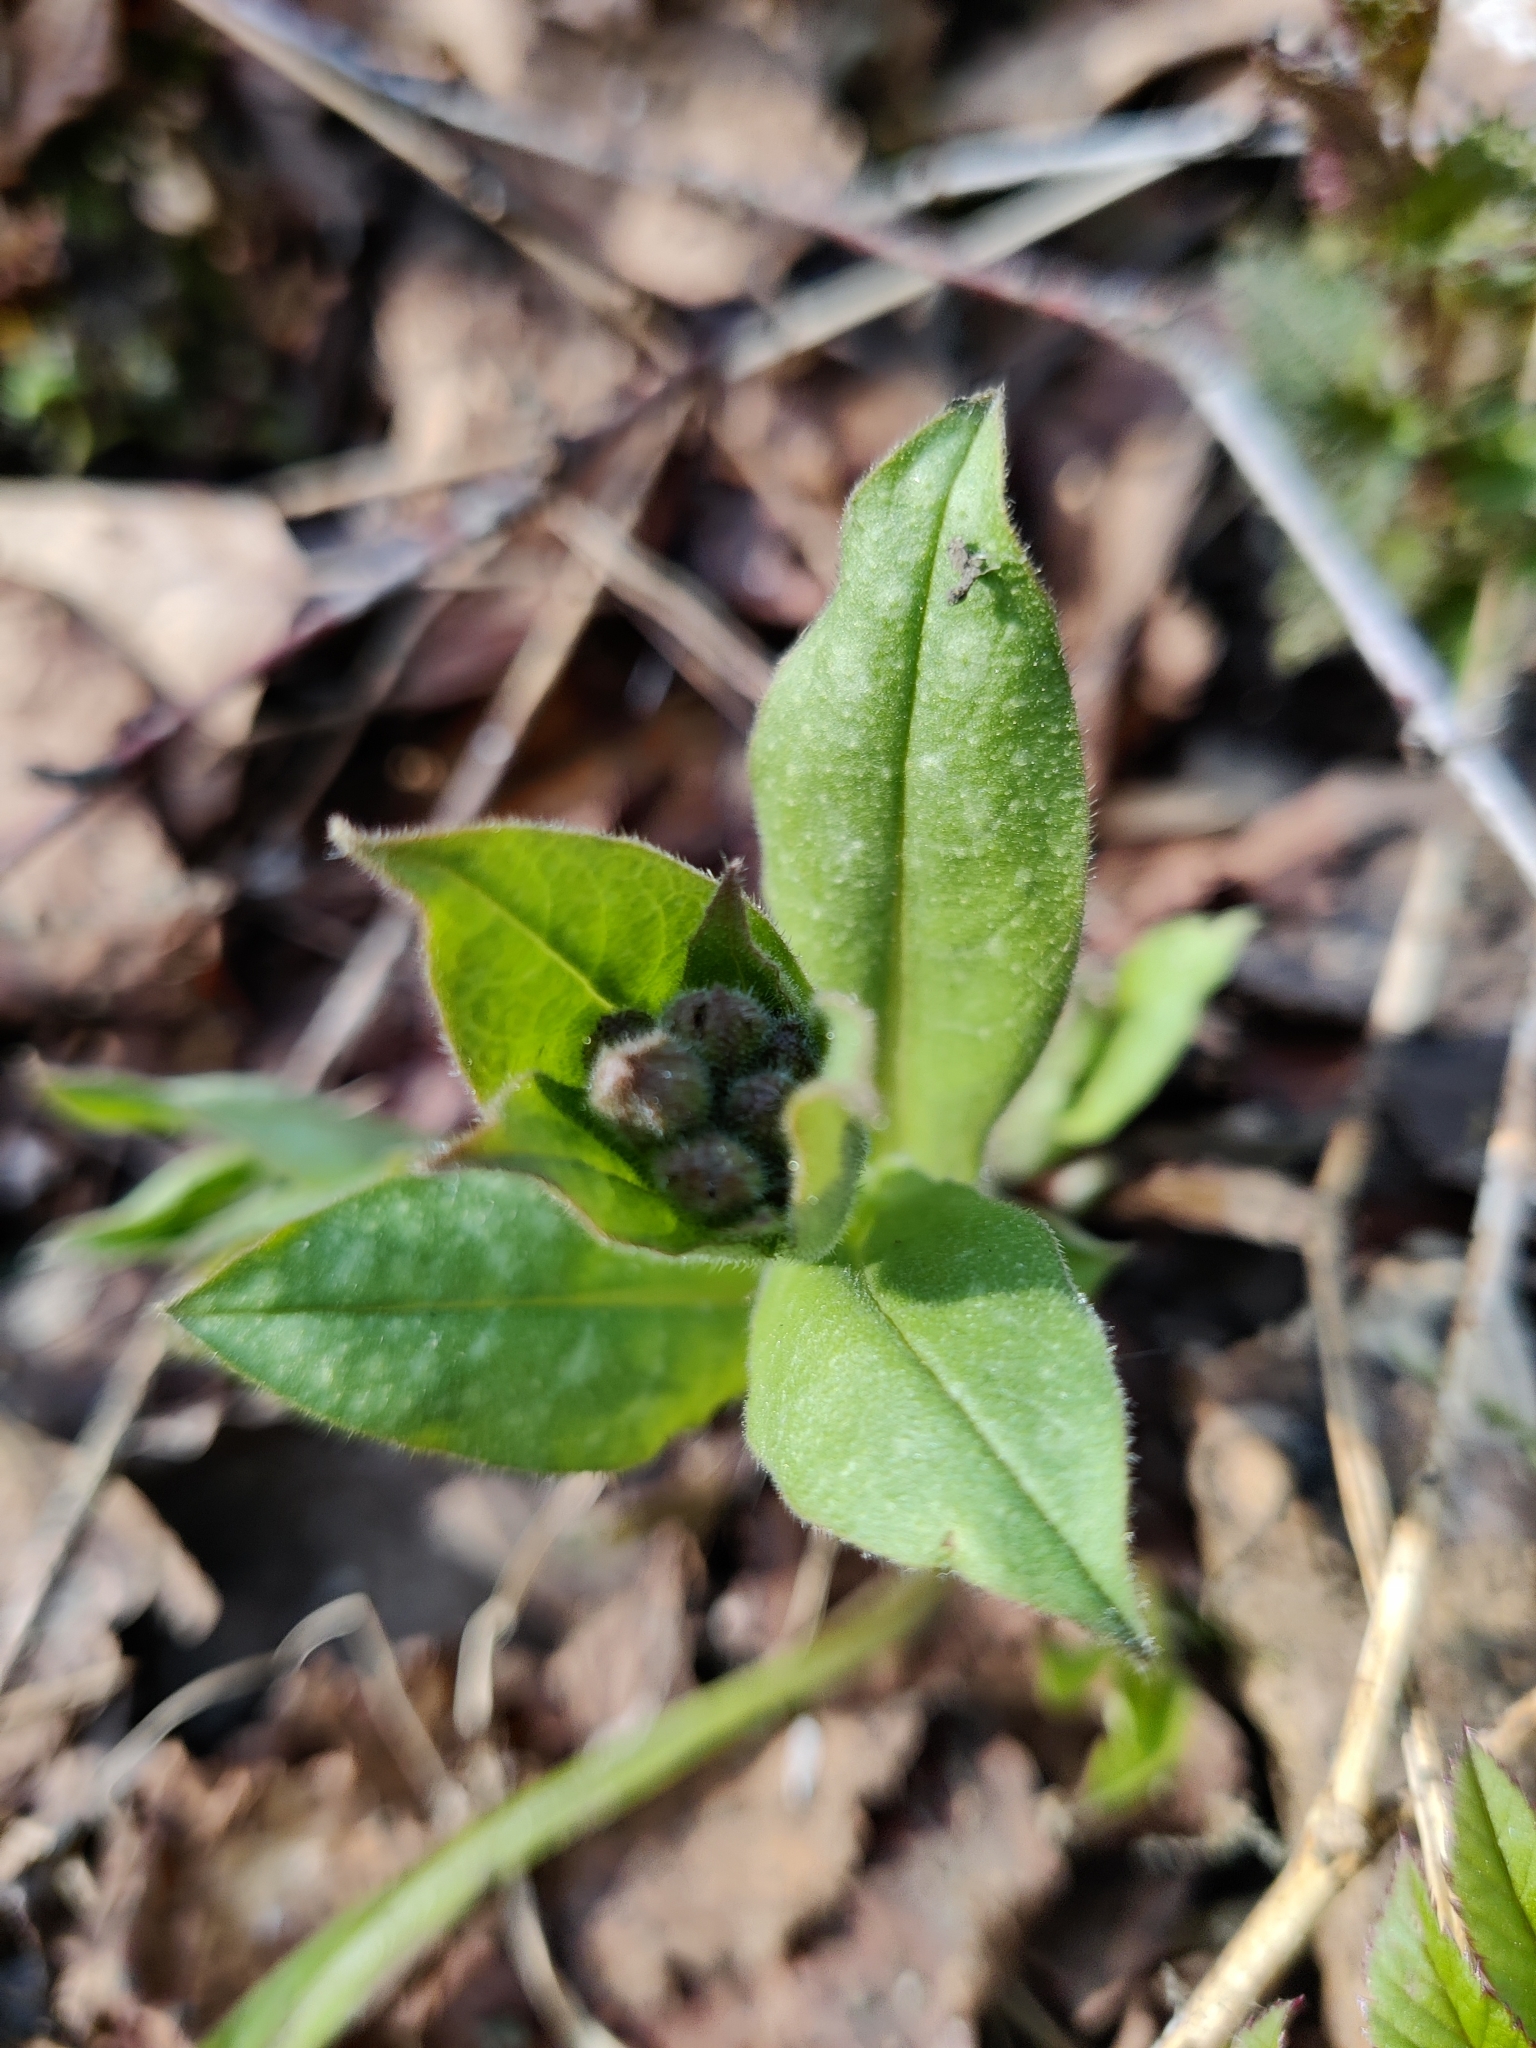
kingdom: Plantae
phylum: Tracheophyta
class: Magnoliopsida
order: Boraginales
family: Boraginaceae
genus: Pulmonaria
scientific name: Pulmonaria obscura
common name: Suffolk lungwort
